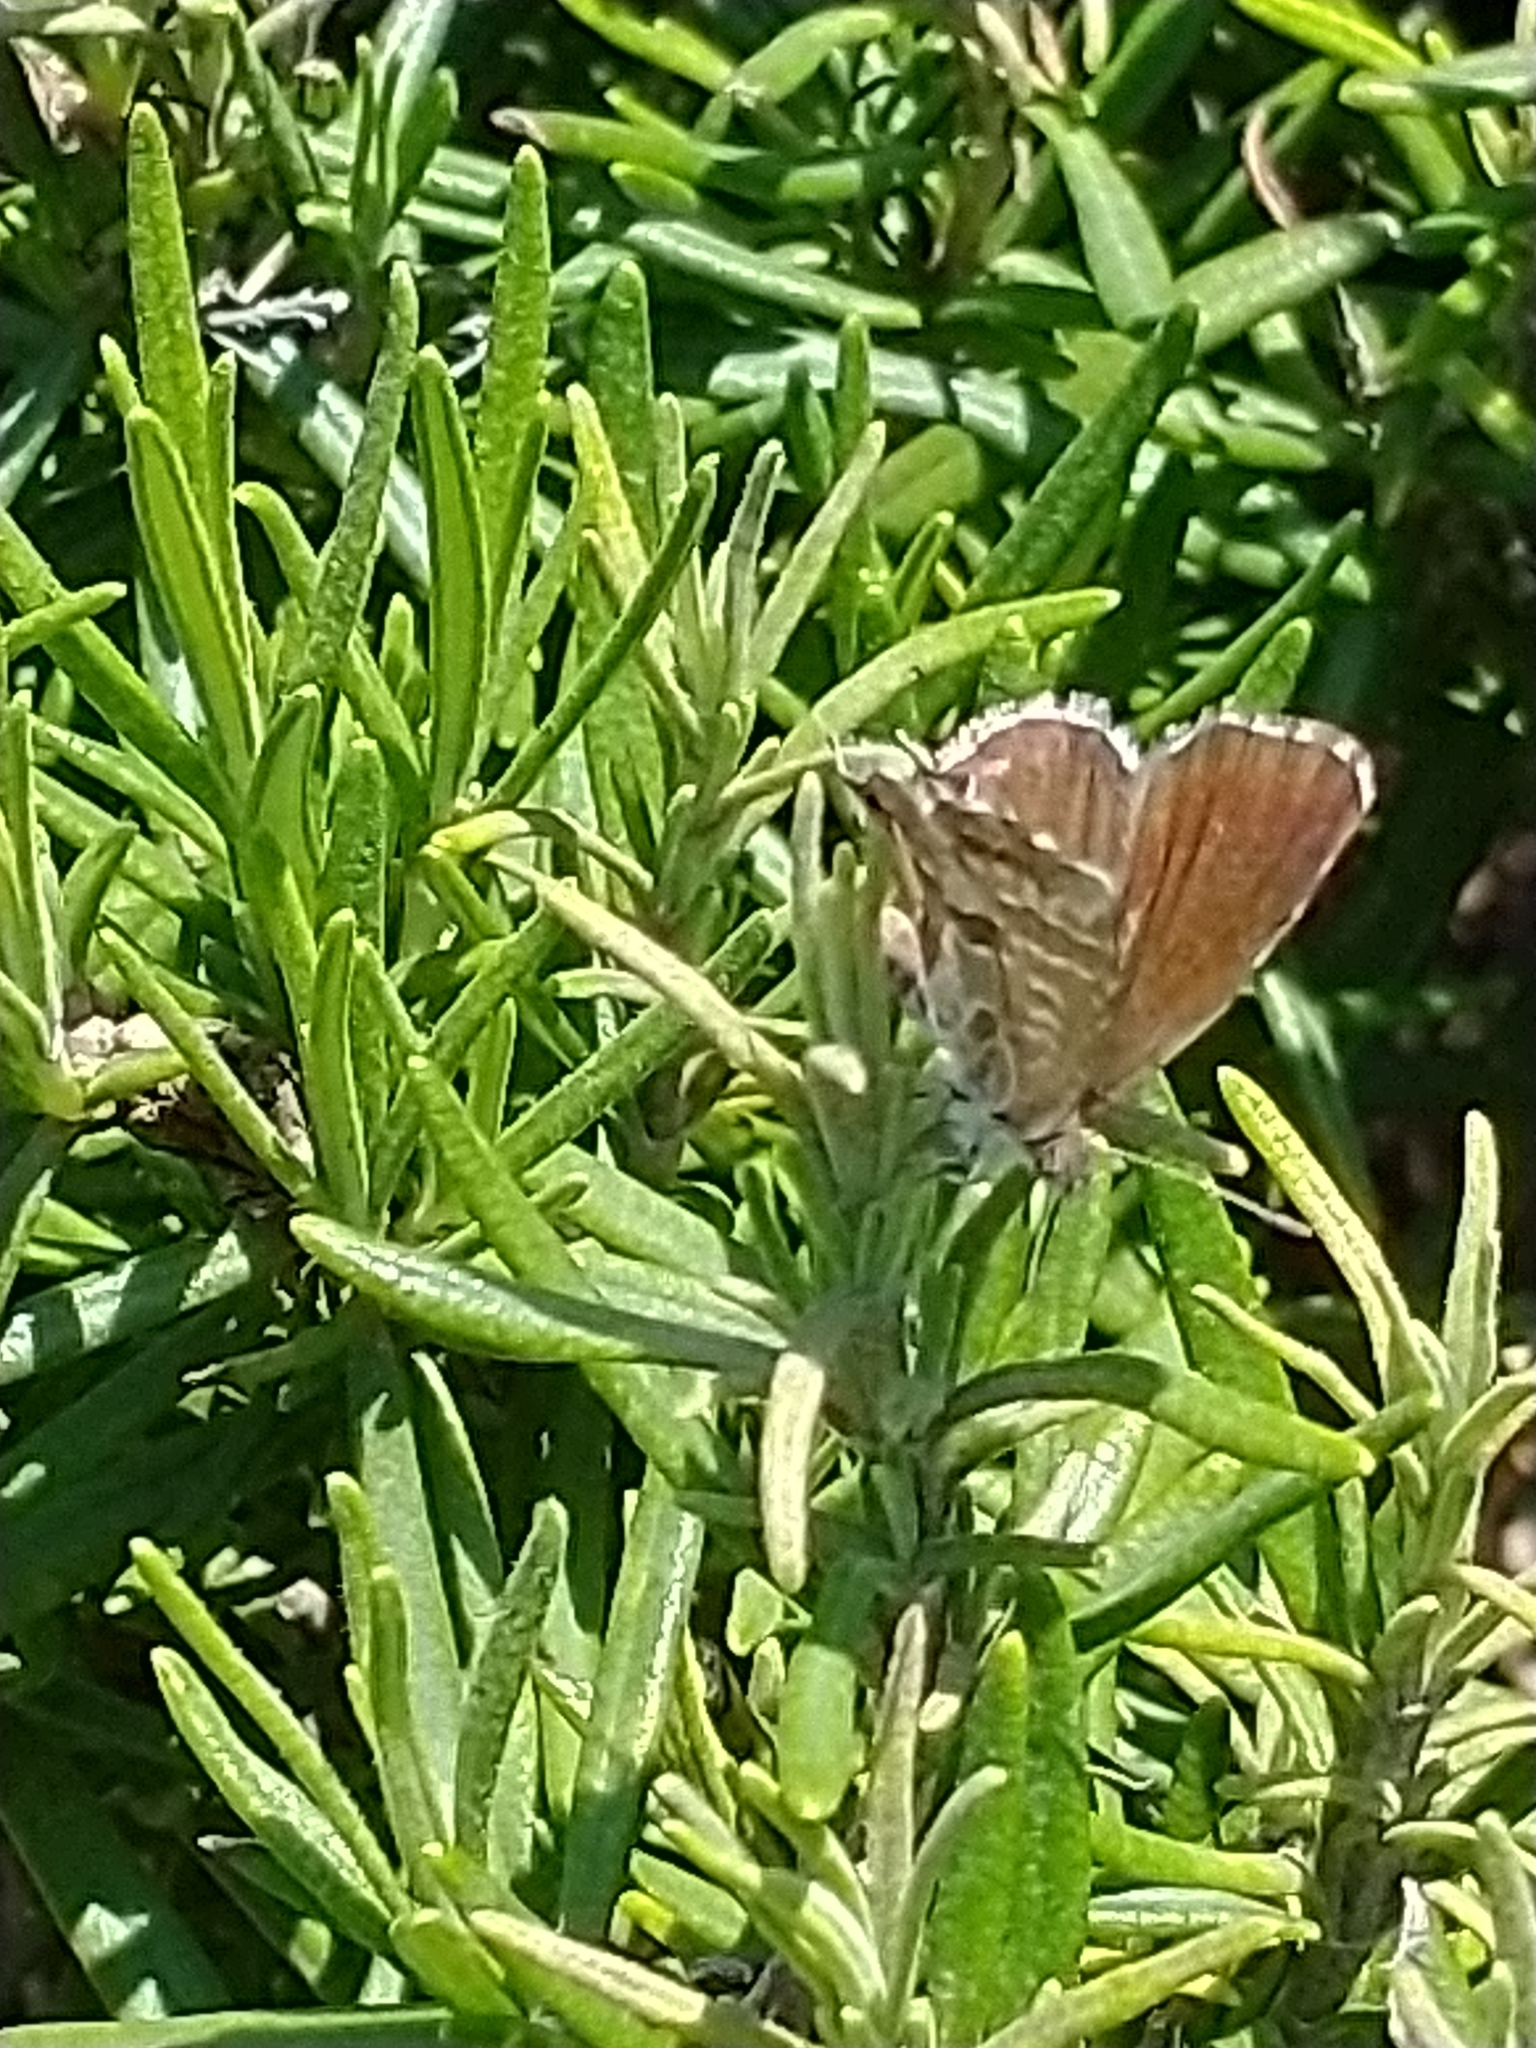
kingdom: Animalia
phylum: Arthropoda
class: Insecta
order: Lepidoptera
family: Lycaenidae
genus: Cacyreus
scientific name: Cacyreus marshalli
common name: Geranium bronze
